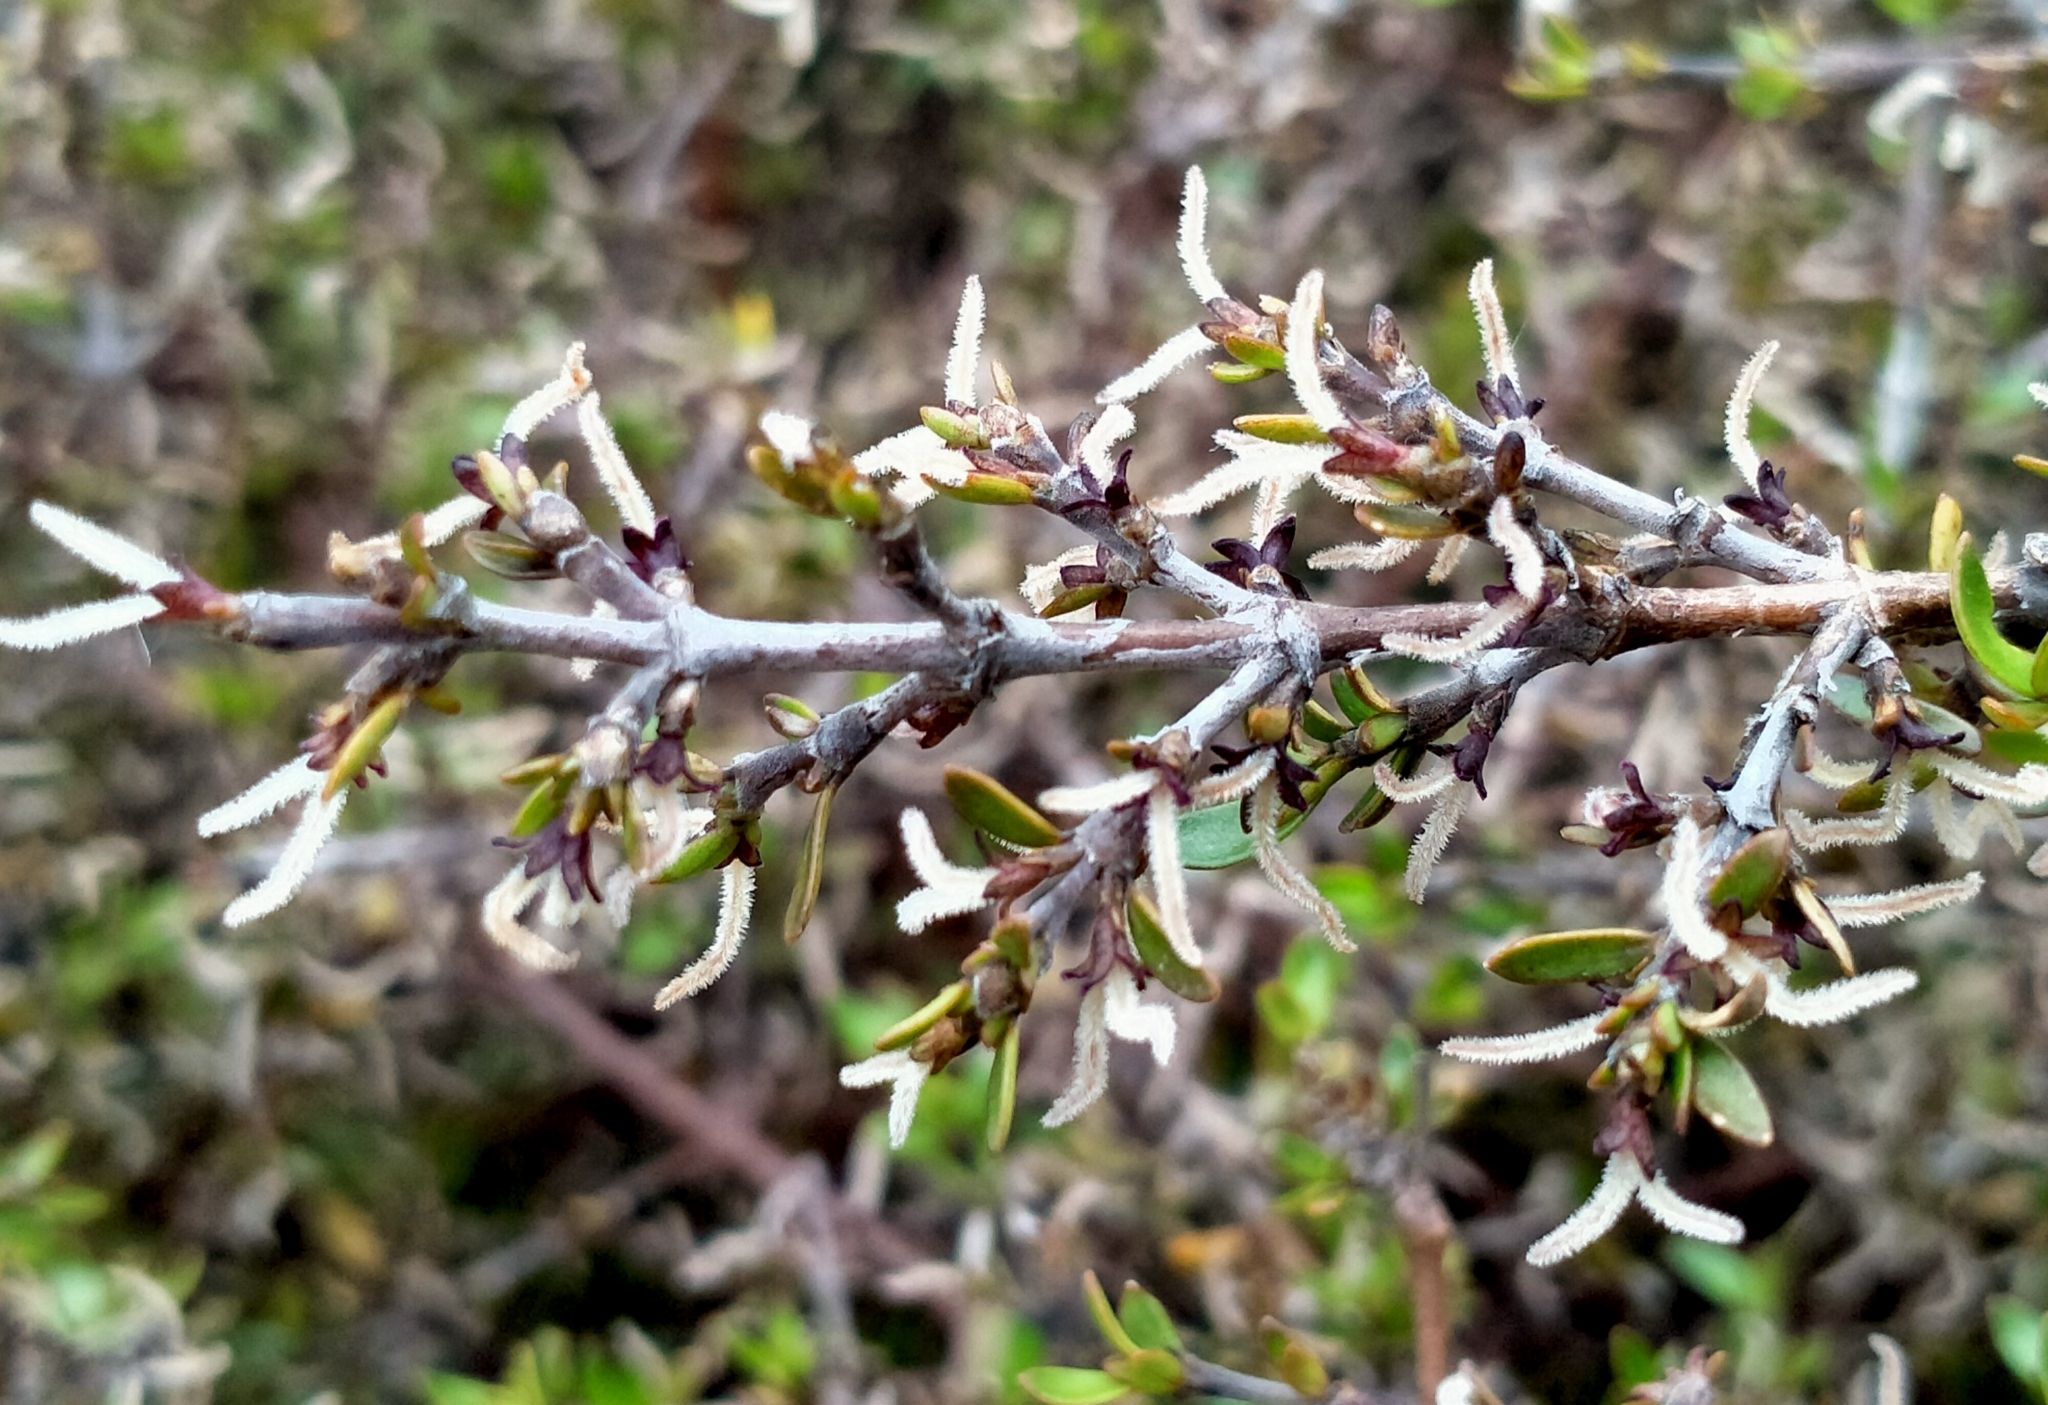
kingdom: Plantae
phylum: Tracheophyta
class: Magnoliopsida
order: Gentianales
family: Rubiaceae
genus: Coprosma
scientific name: Coprosma cheesemanii
